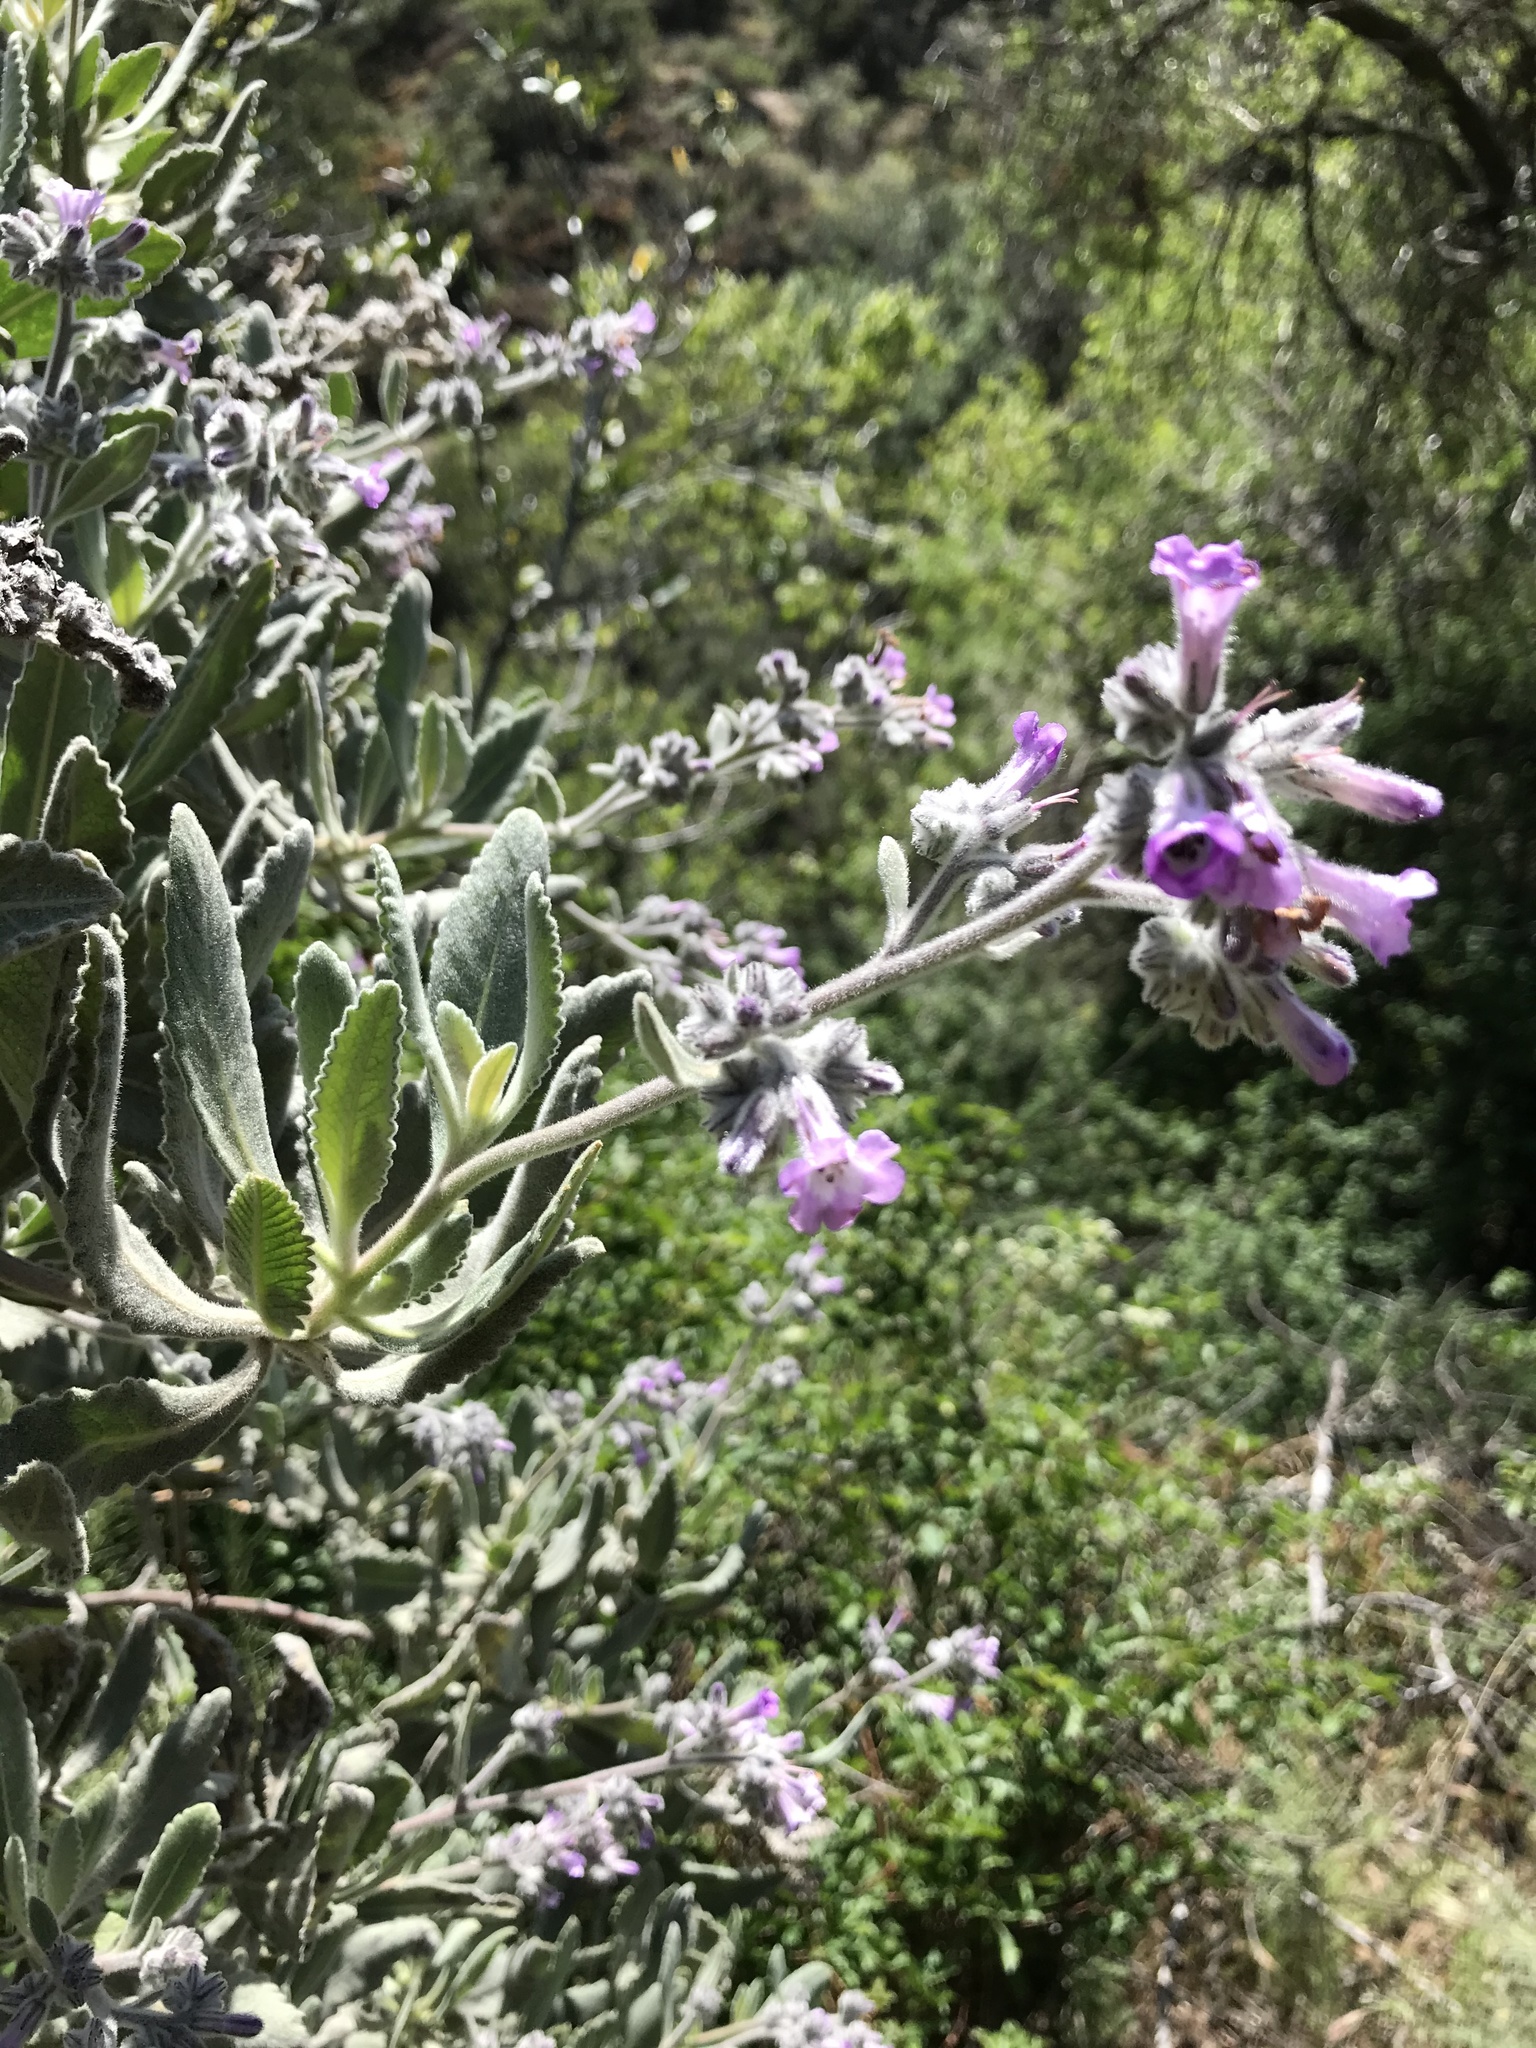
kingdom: Plantae
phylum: Tracheophyta
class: Magnoliopsida
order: Boraginales
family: Namaceae
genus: Eriodictyon
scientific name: Eriodictyon crassifolium
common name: Thick-leaf yerba-santa
